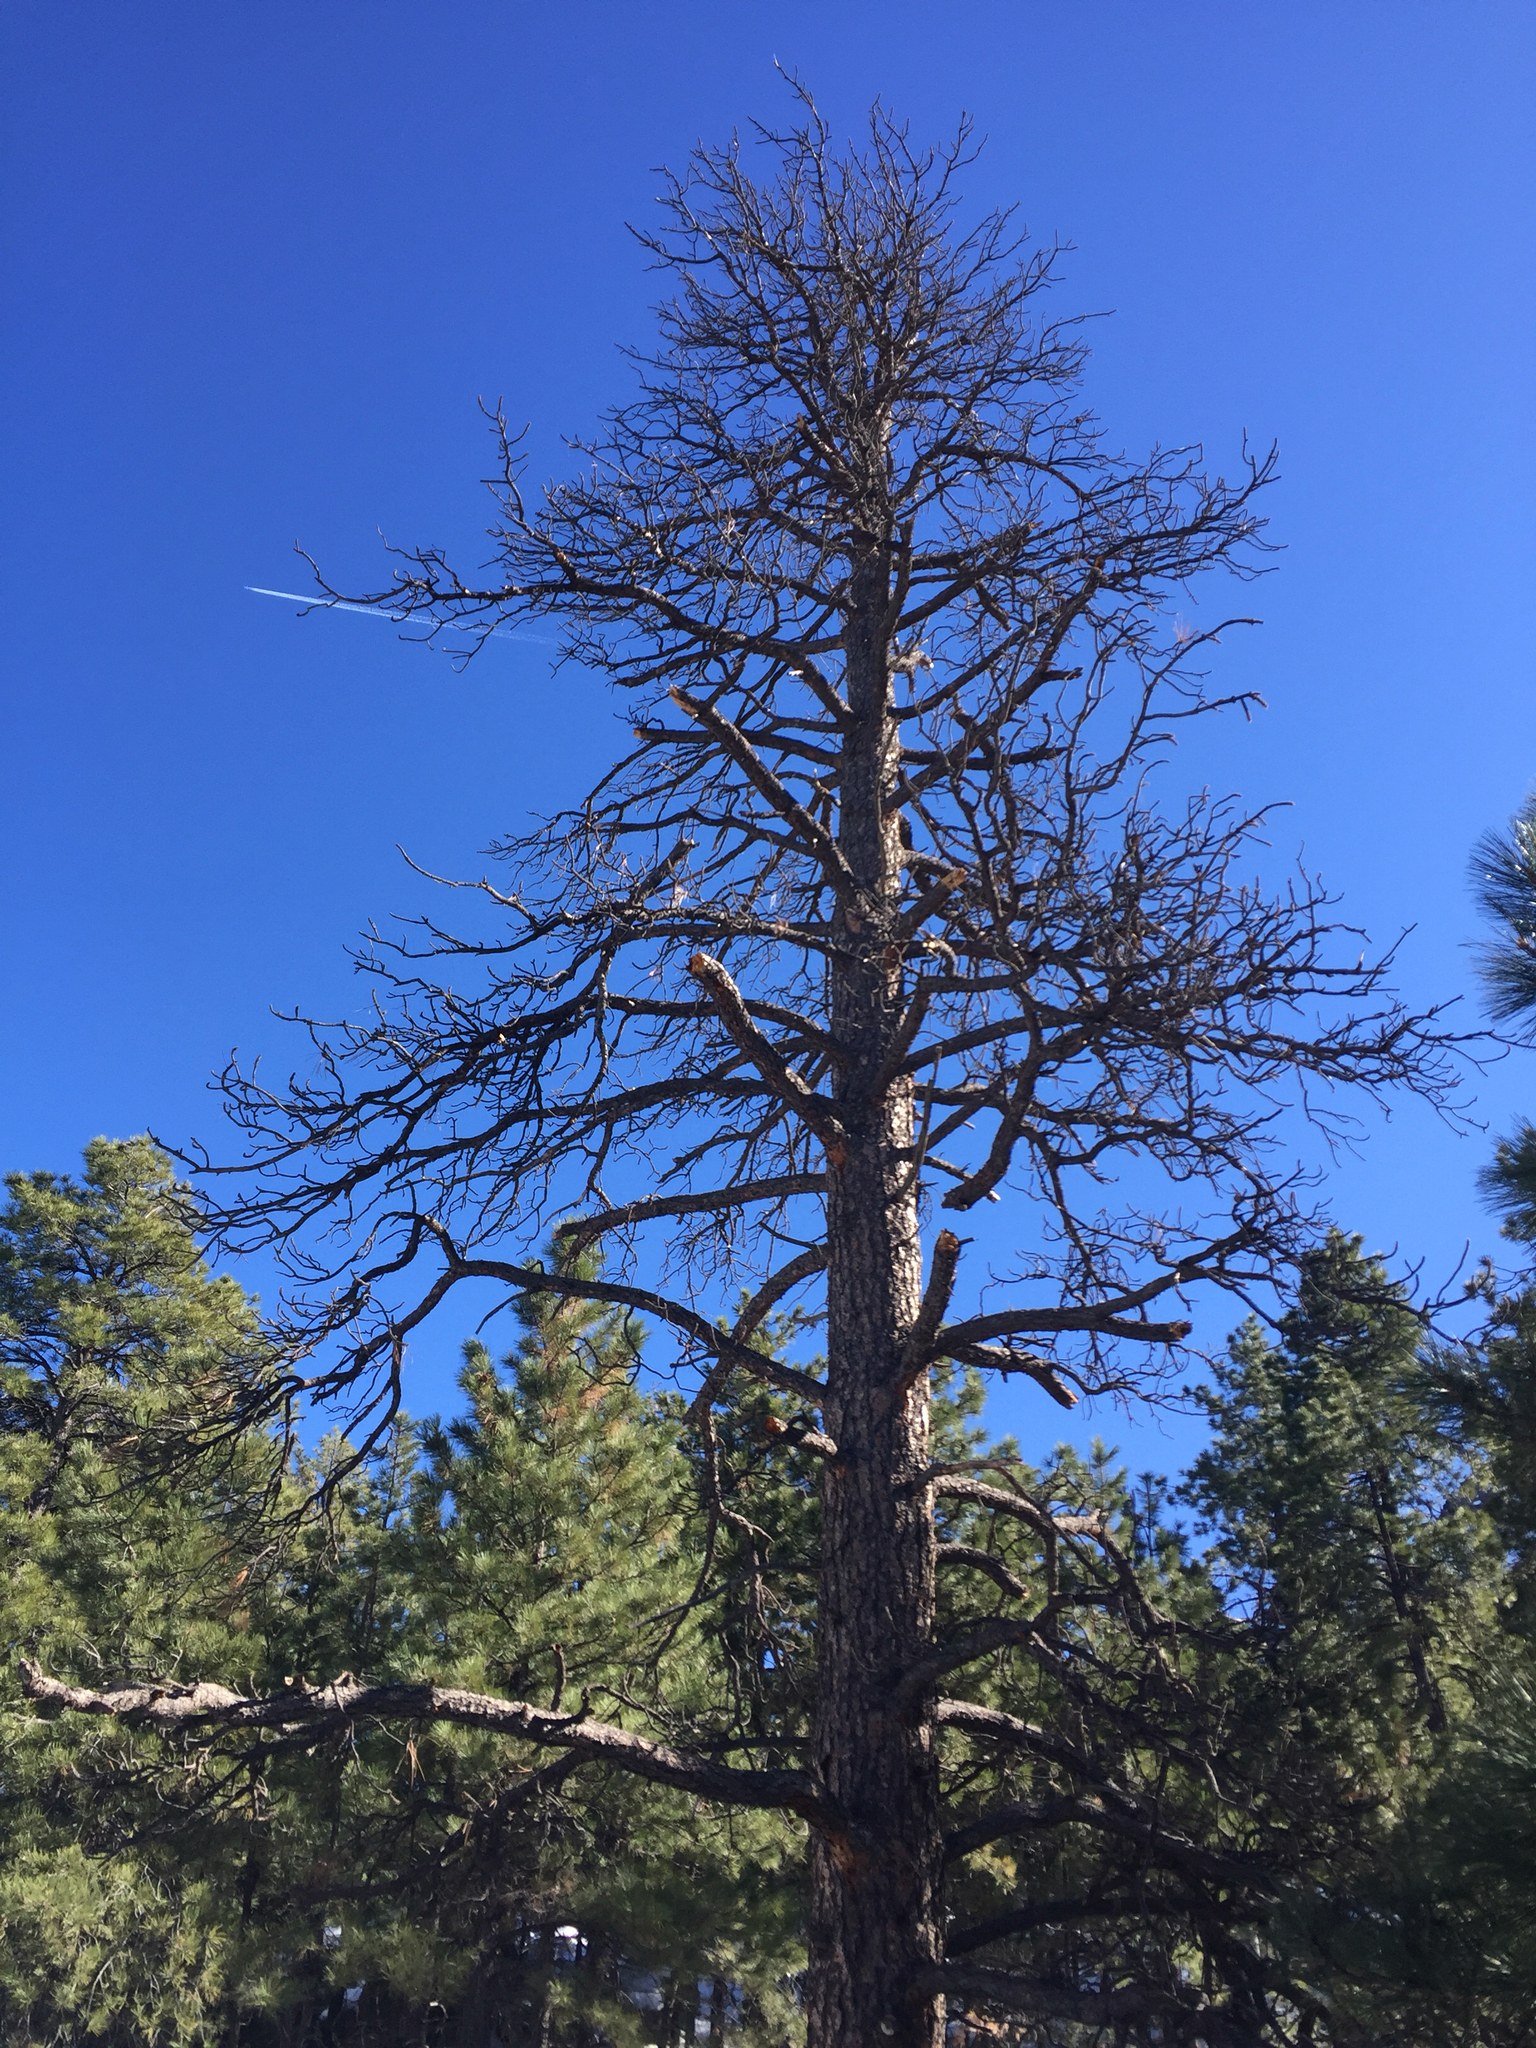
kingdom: Plantae
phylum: Tracheophyta
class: Pinopsida
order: Pinales
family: Pinaceae
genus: Pinus
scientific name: Pinus ponderosa
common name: Western yellow-pine
